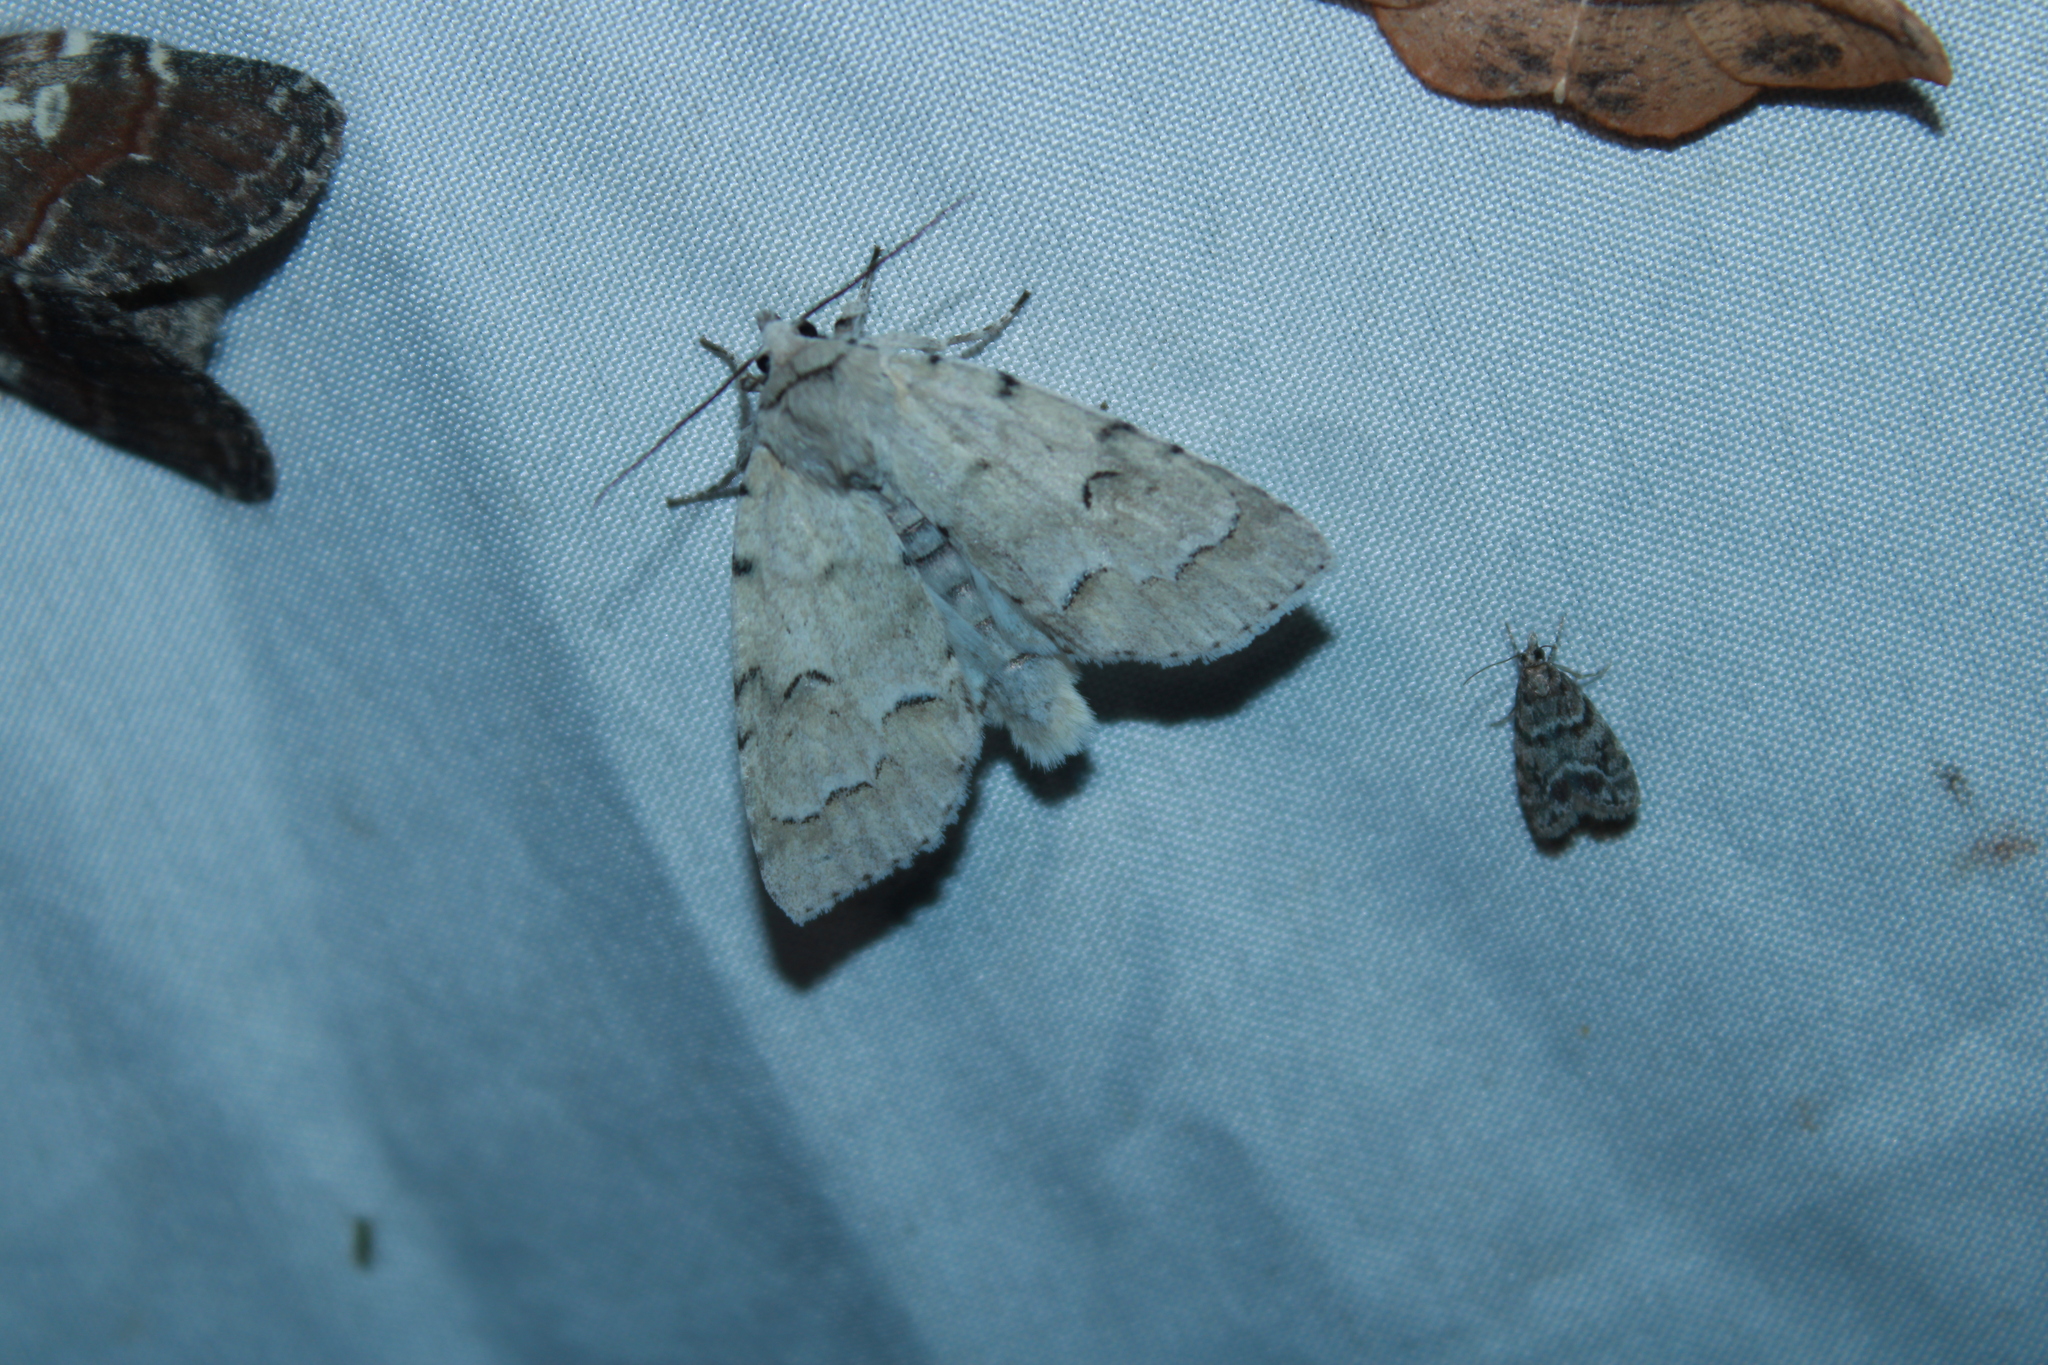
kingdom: Animalia
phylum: Arthropoda
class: Insecta
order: Lepidoptera
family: Noctuidae
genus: Acronicta
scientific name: Acronicta innotata
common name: Unmarked dagger
